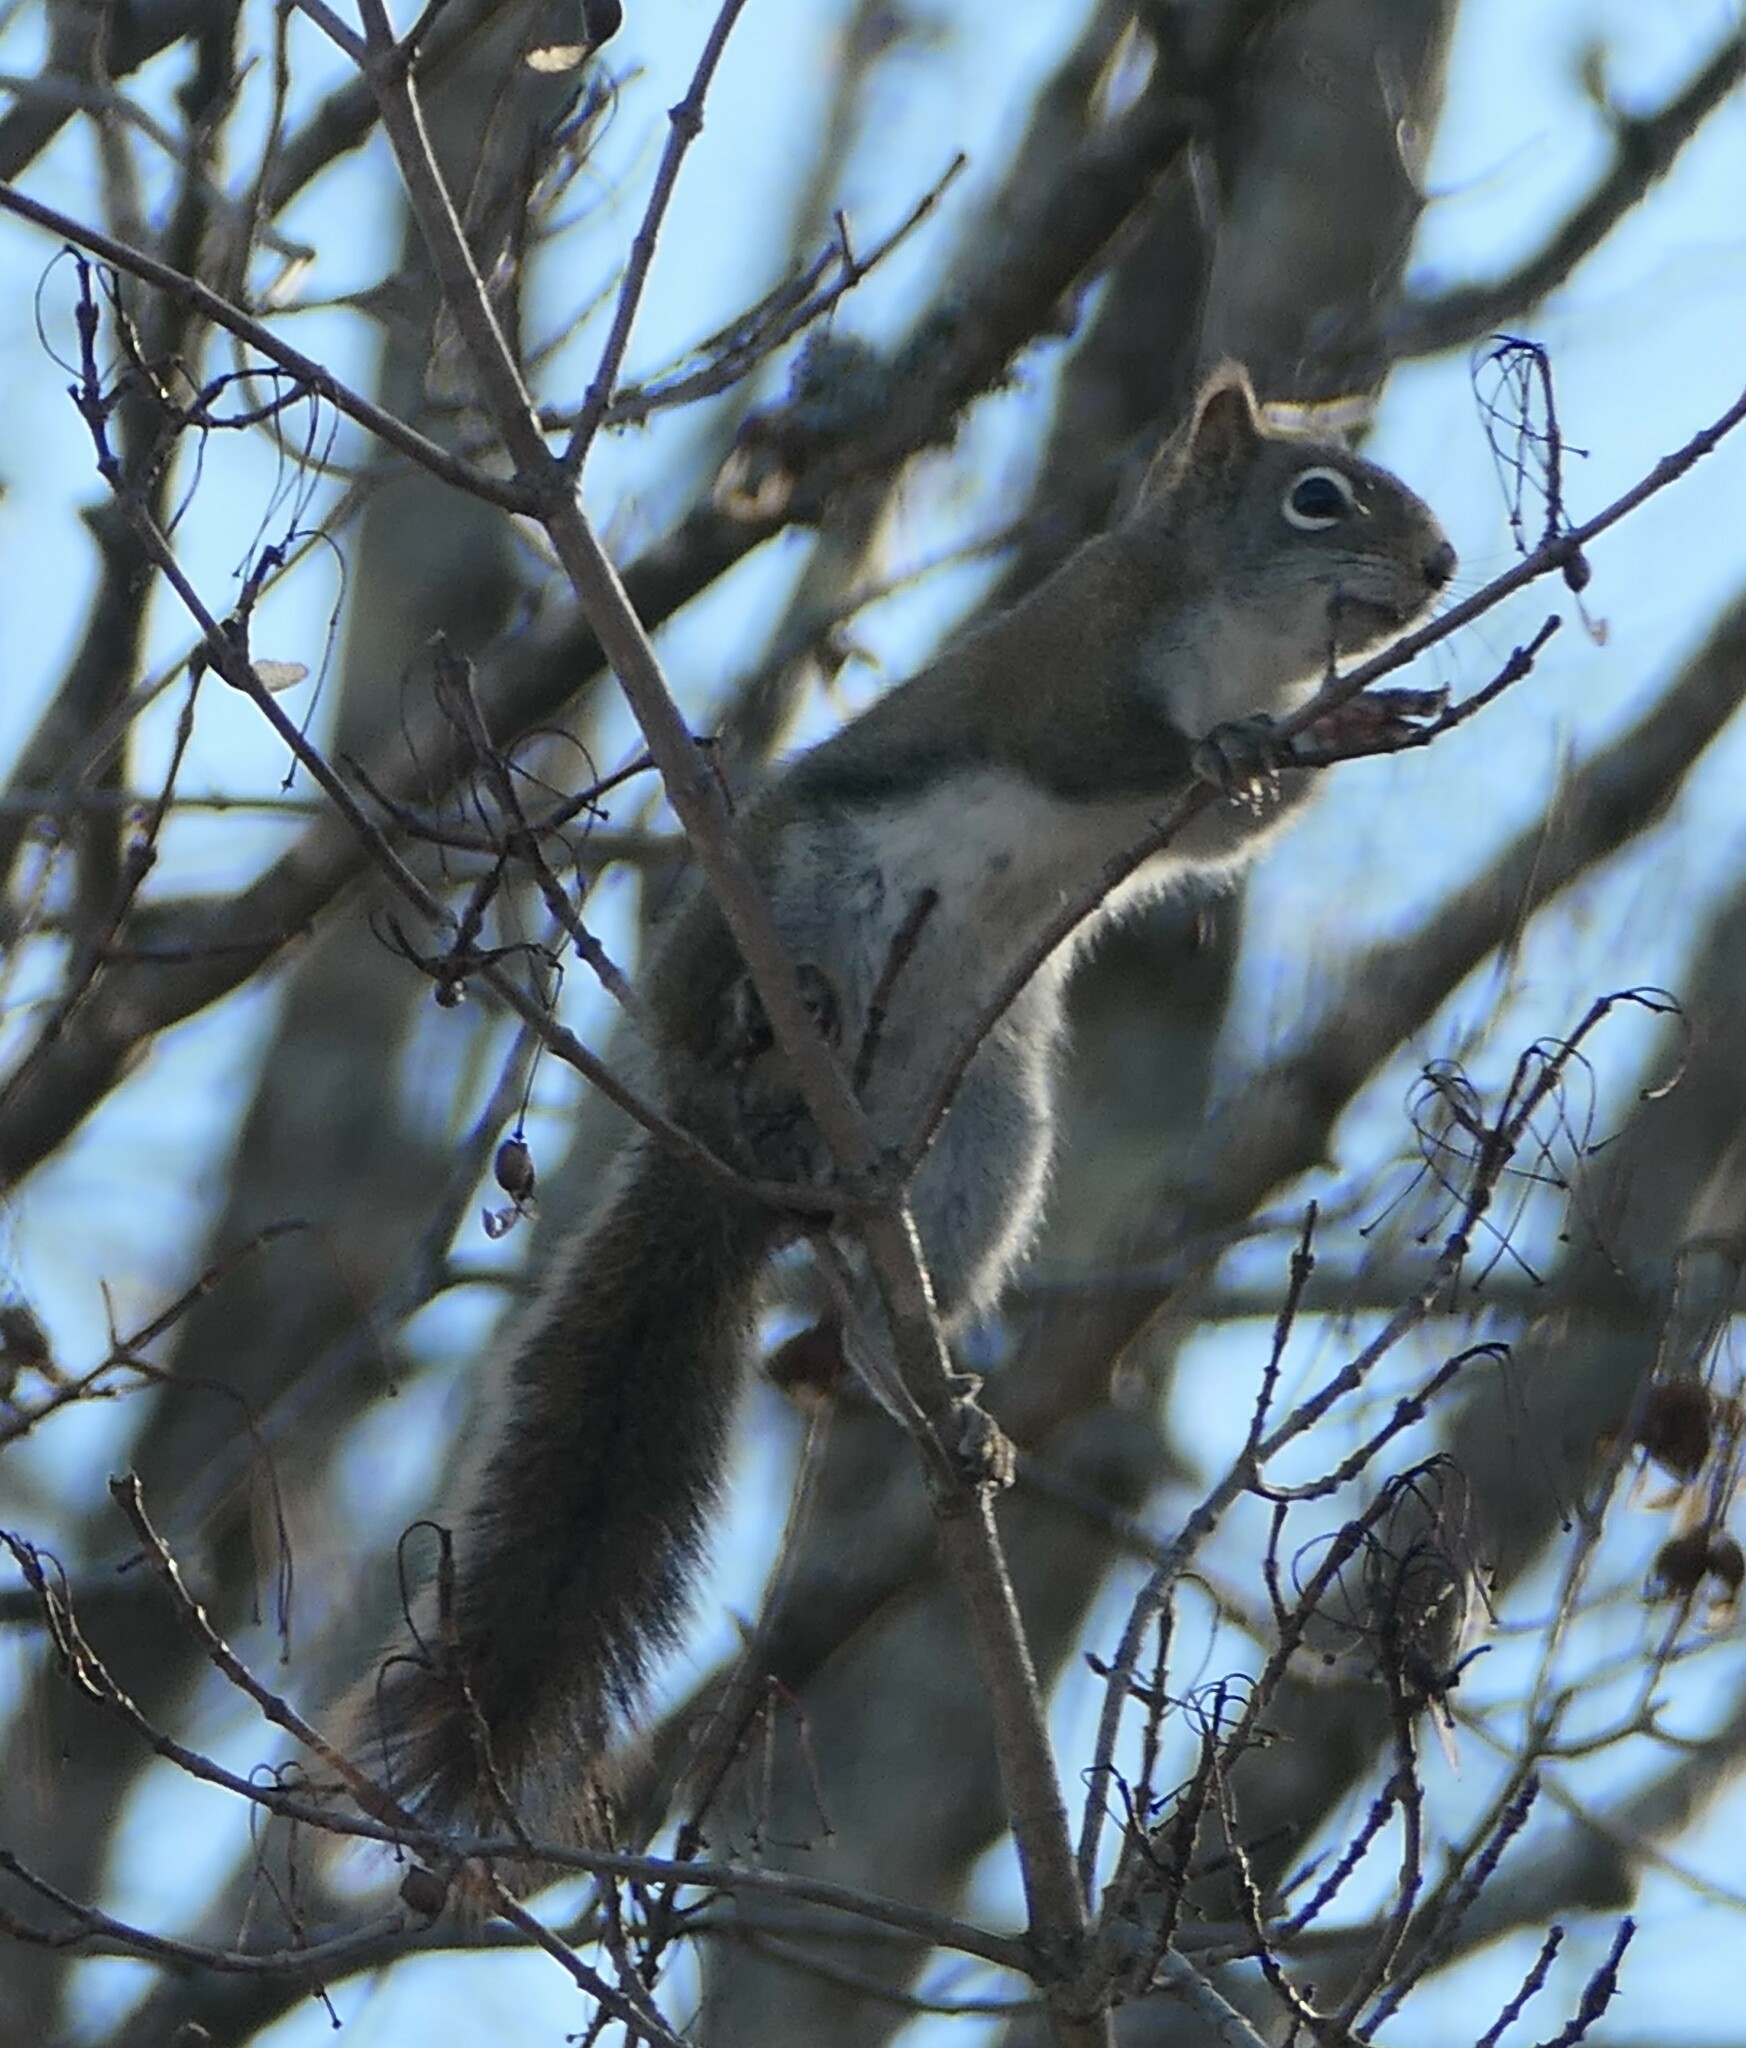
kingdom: Animalia
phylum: Chordata
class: Mammalia
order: Rodentia
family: Sciuridae
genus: Tamiasciurus
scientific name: Tamiasciurus hudsonicus
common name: Red squirrel
